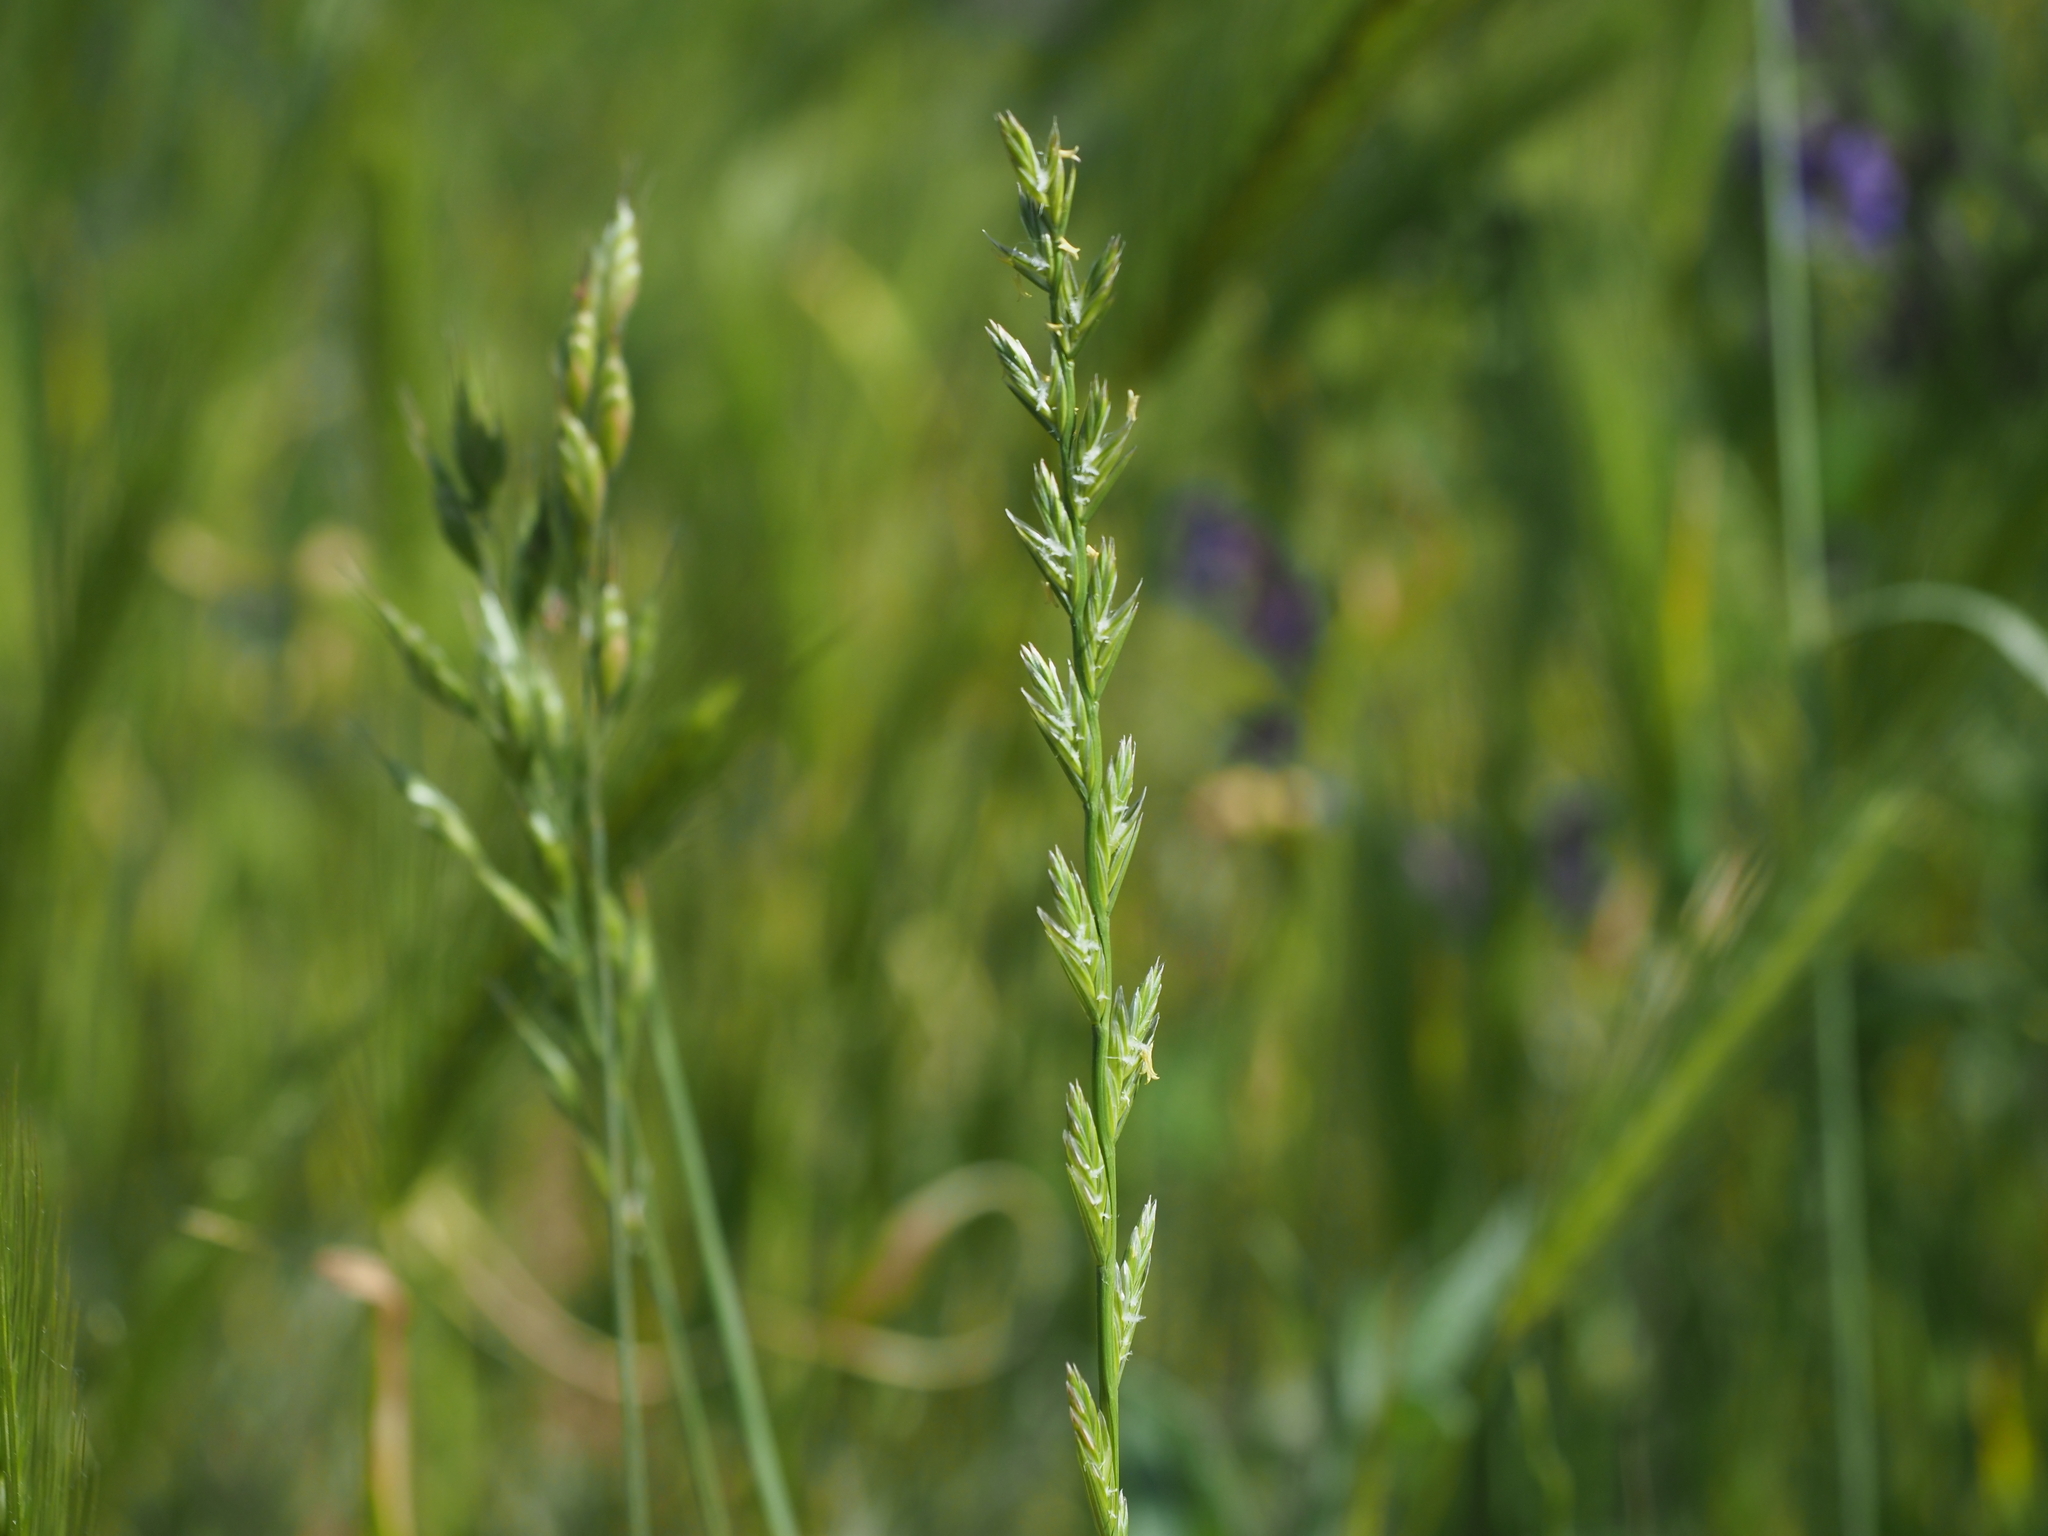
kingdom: Plantae
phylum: Tracheophyta
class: Liliopsida
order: Poales
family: Poaceae
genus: Lolium
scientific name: Lolium perenne
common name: Perennial ryegrass
